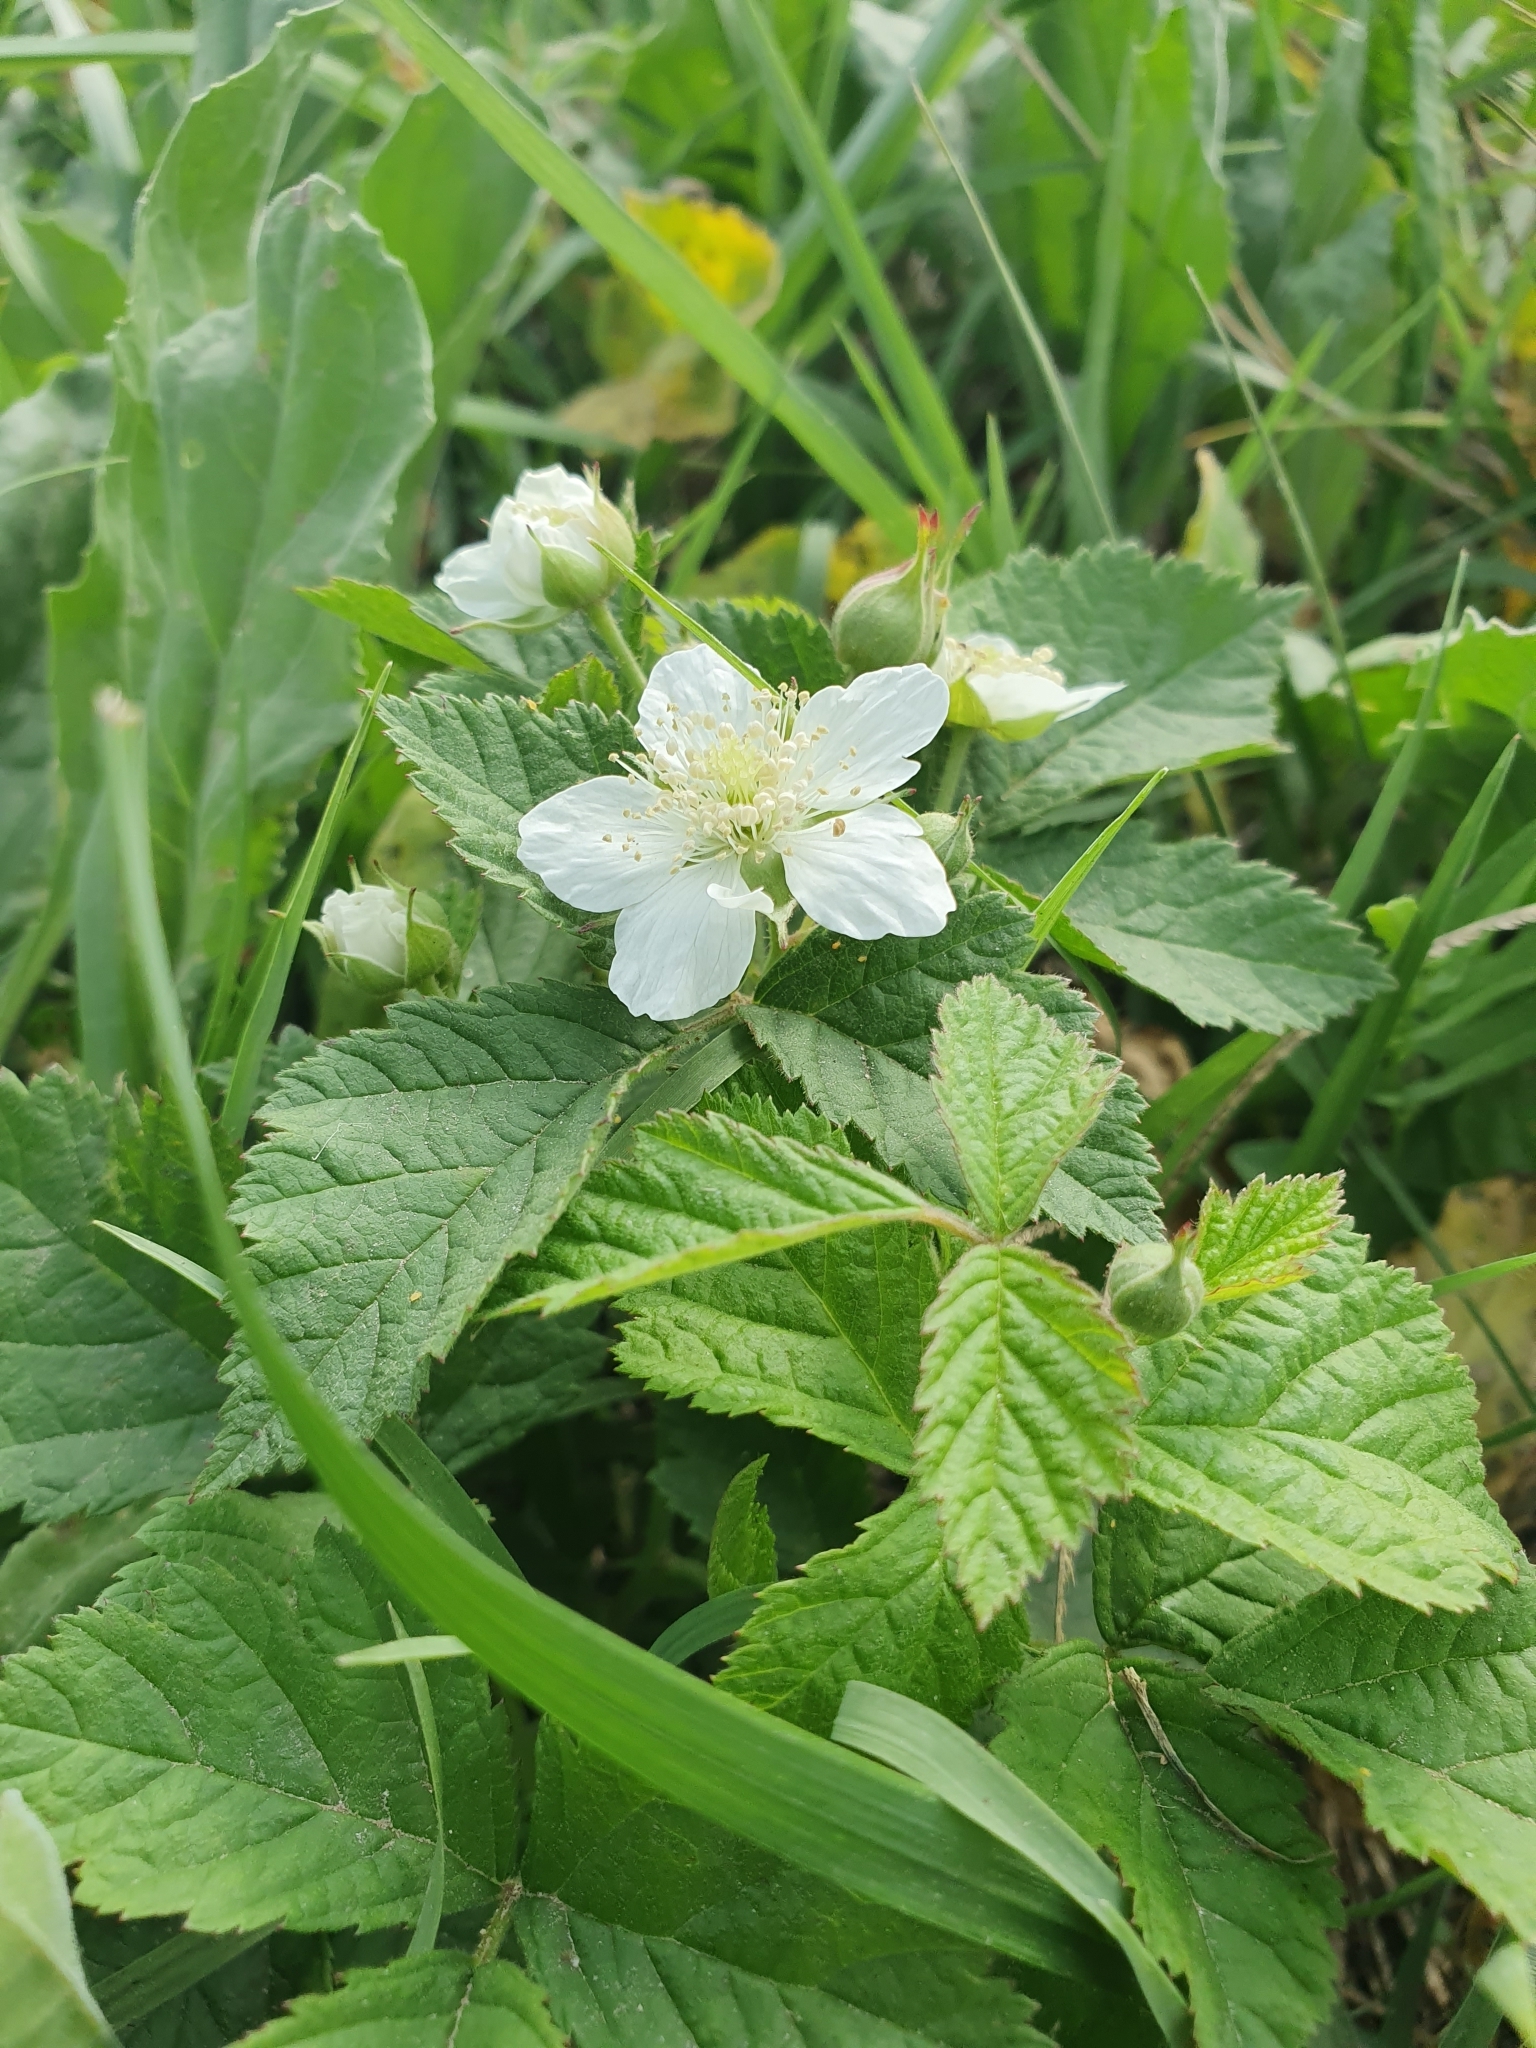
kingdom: Plantae
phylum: Tracheophyta
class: Magnoliopsida
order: Rosales
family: Rosaceae
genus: Rubus
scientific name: Rubus caesius
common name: Dewberry
